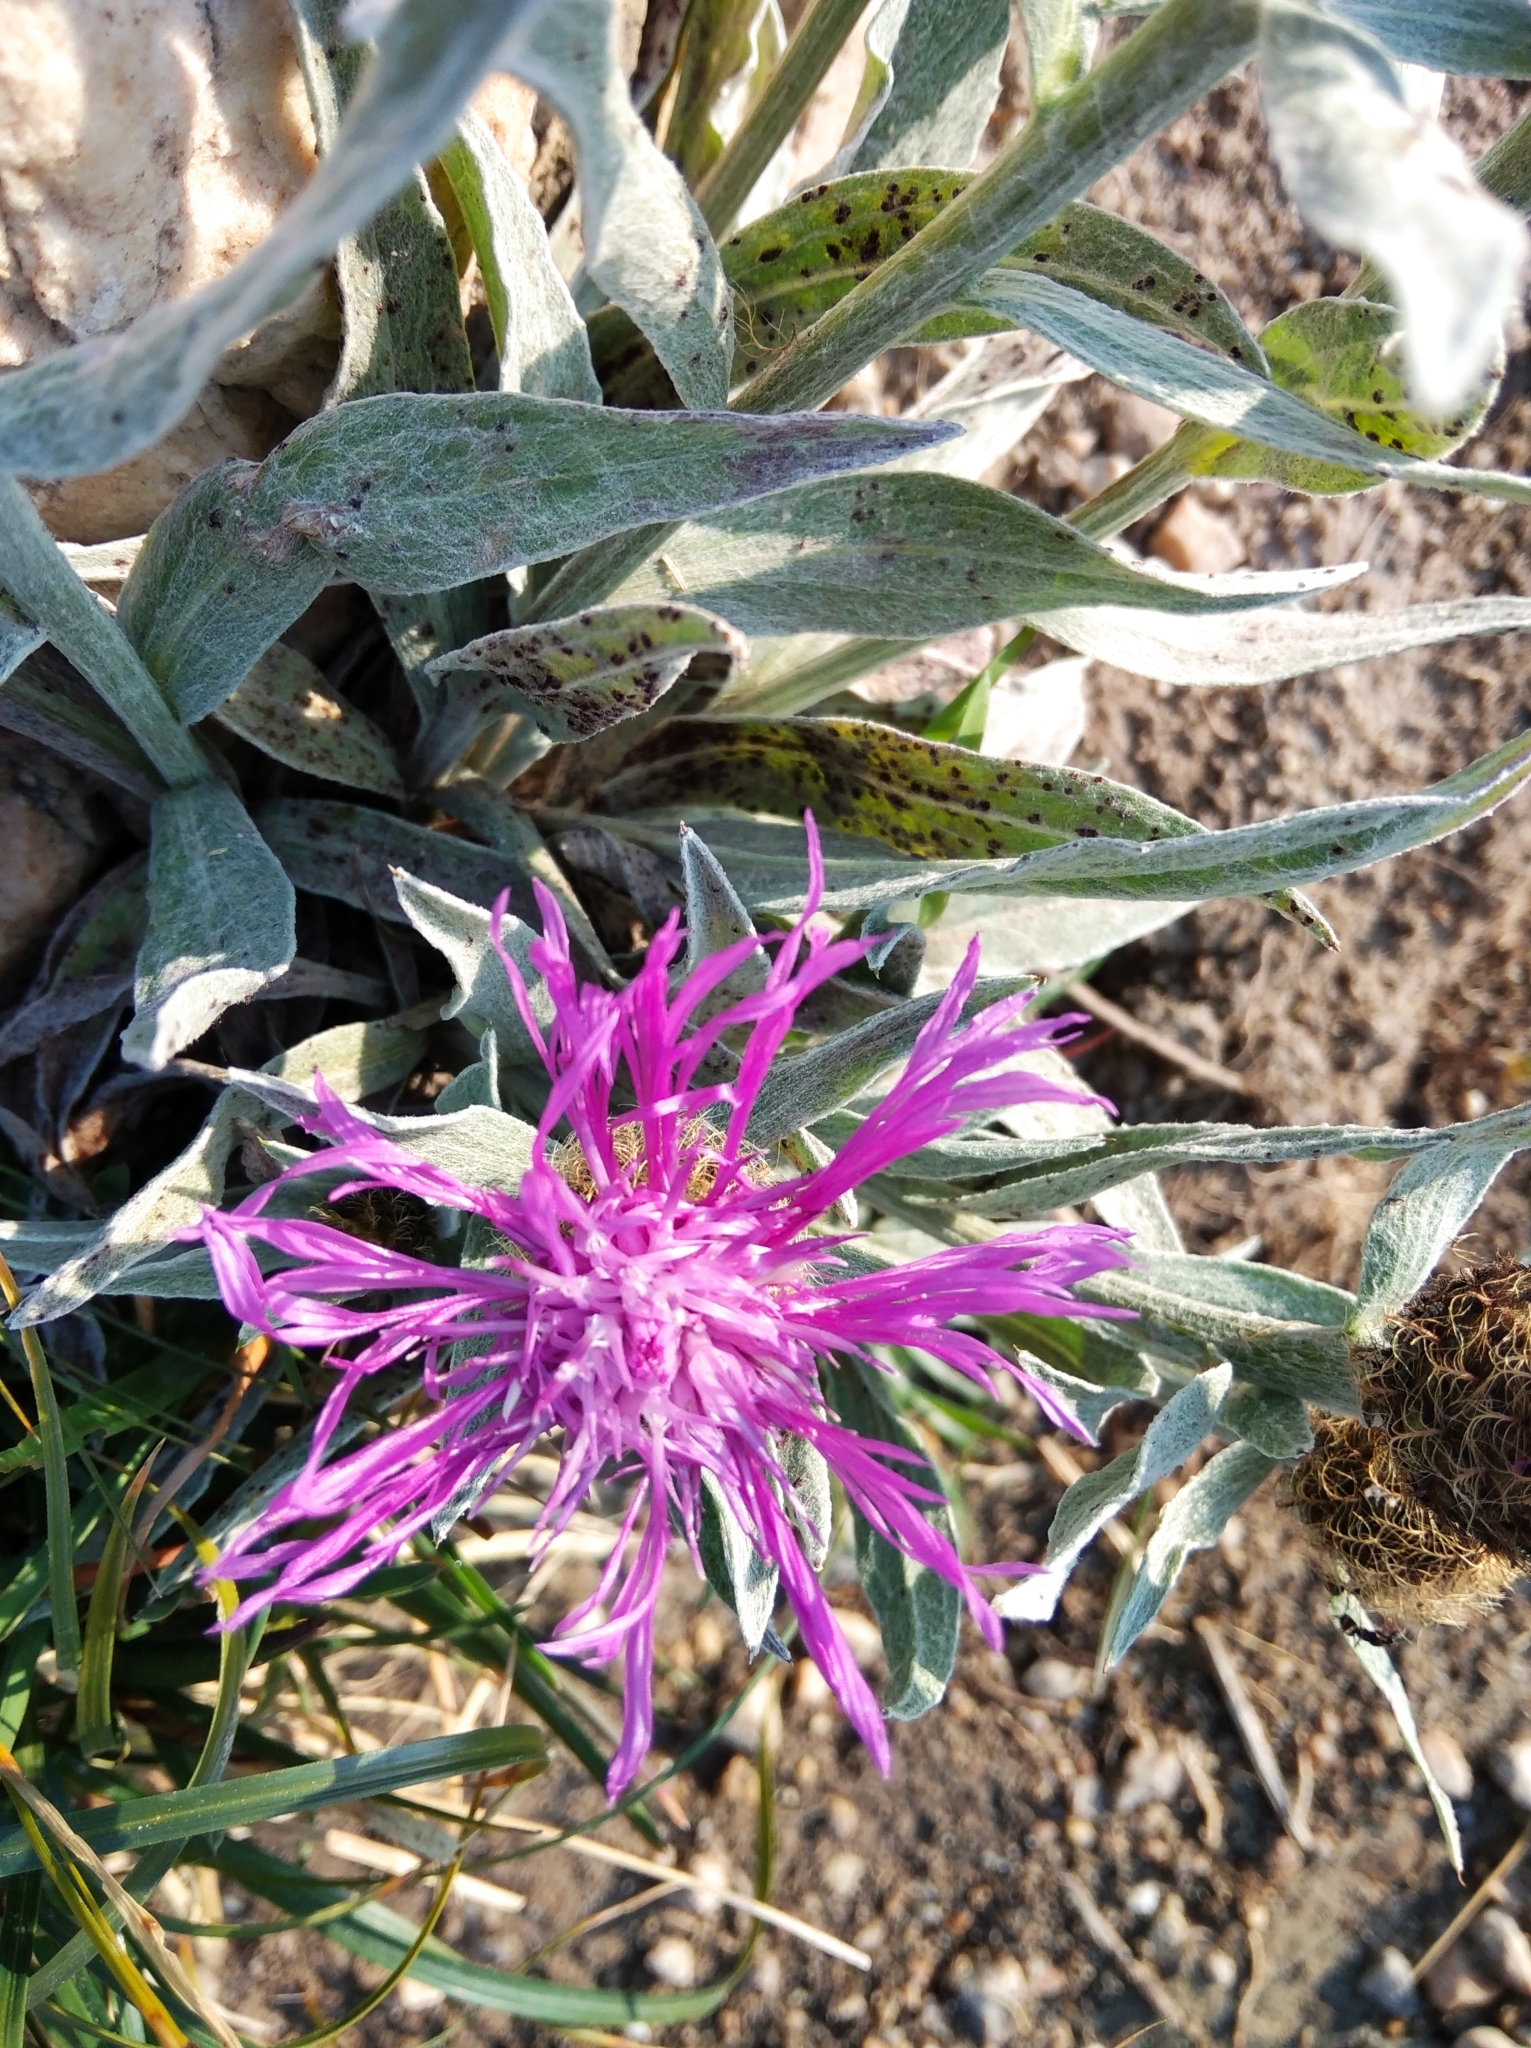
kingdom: Plantae
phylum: Tracheophyta
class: Magnoliopsida
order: Asterales
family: Asteraceae
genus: Centaurea
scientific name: Centaurea uniflora
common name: Singleflower knapweed
